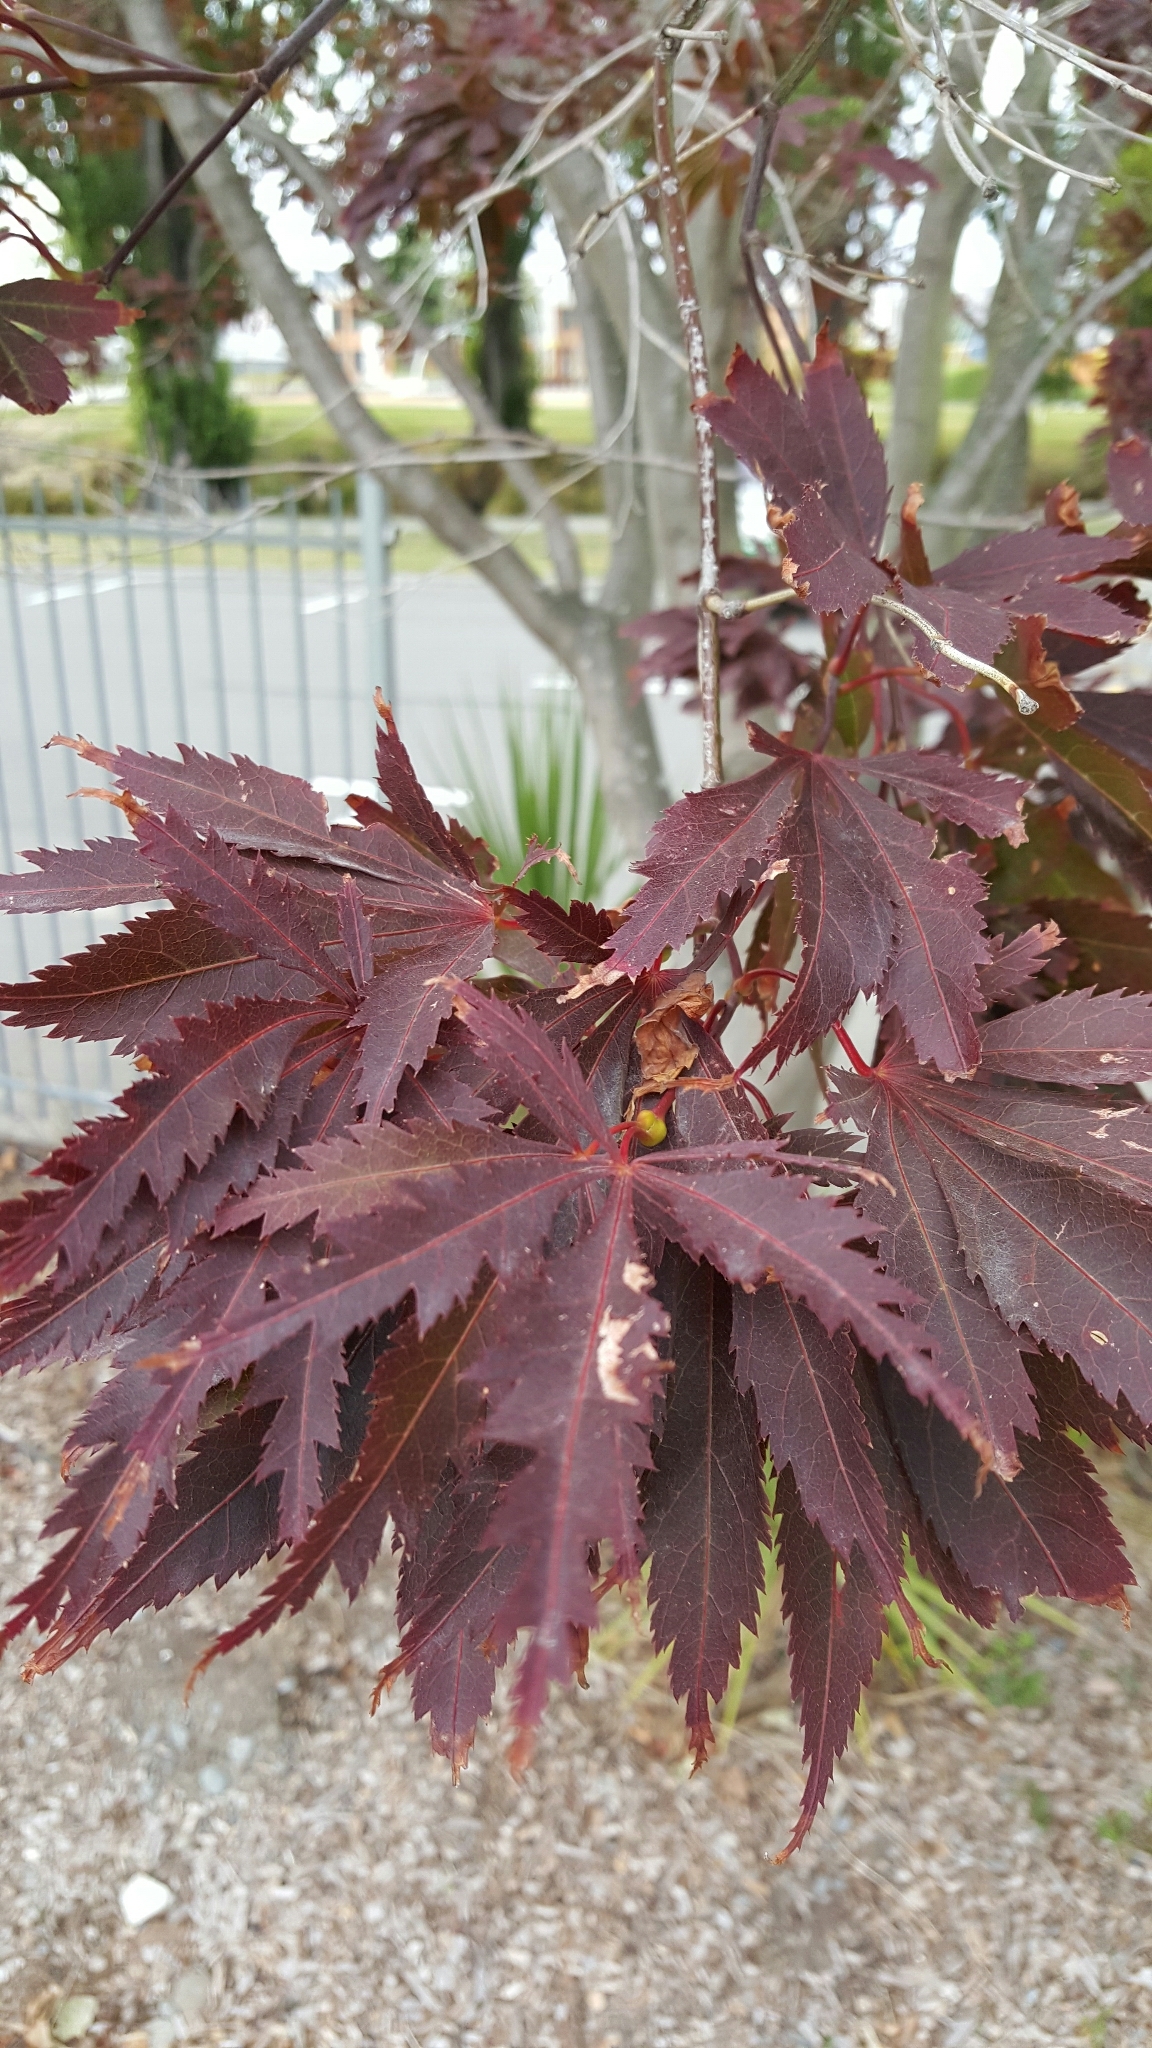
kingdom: Plantae
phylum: Tracheophyta
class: Magnoliopsida
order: Lamiales
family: Oleaceae
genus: Fraxinus
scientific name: Fraxinus angustifolia
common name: Narrow-leafed ash
